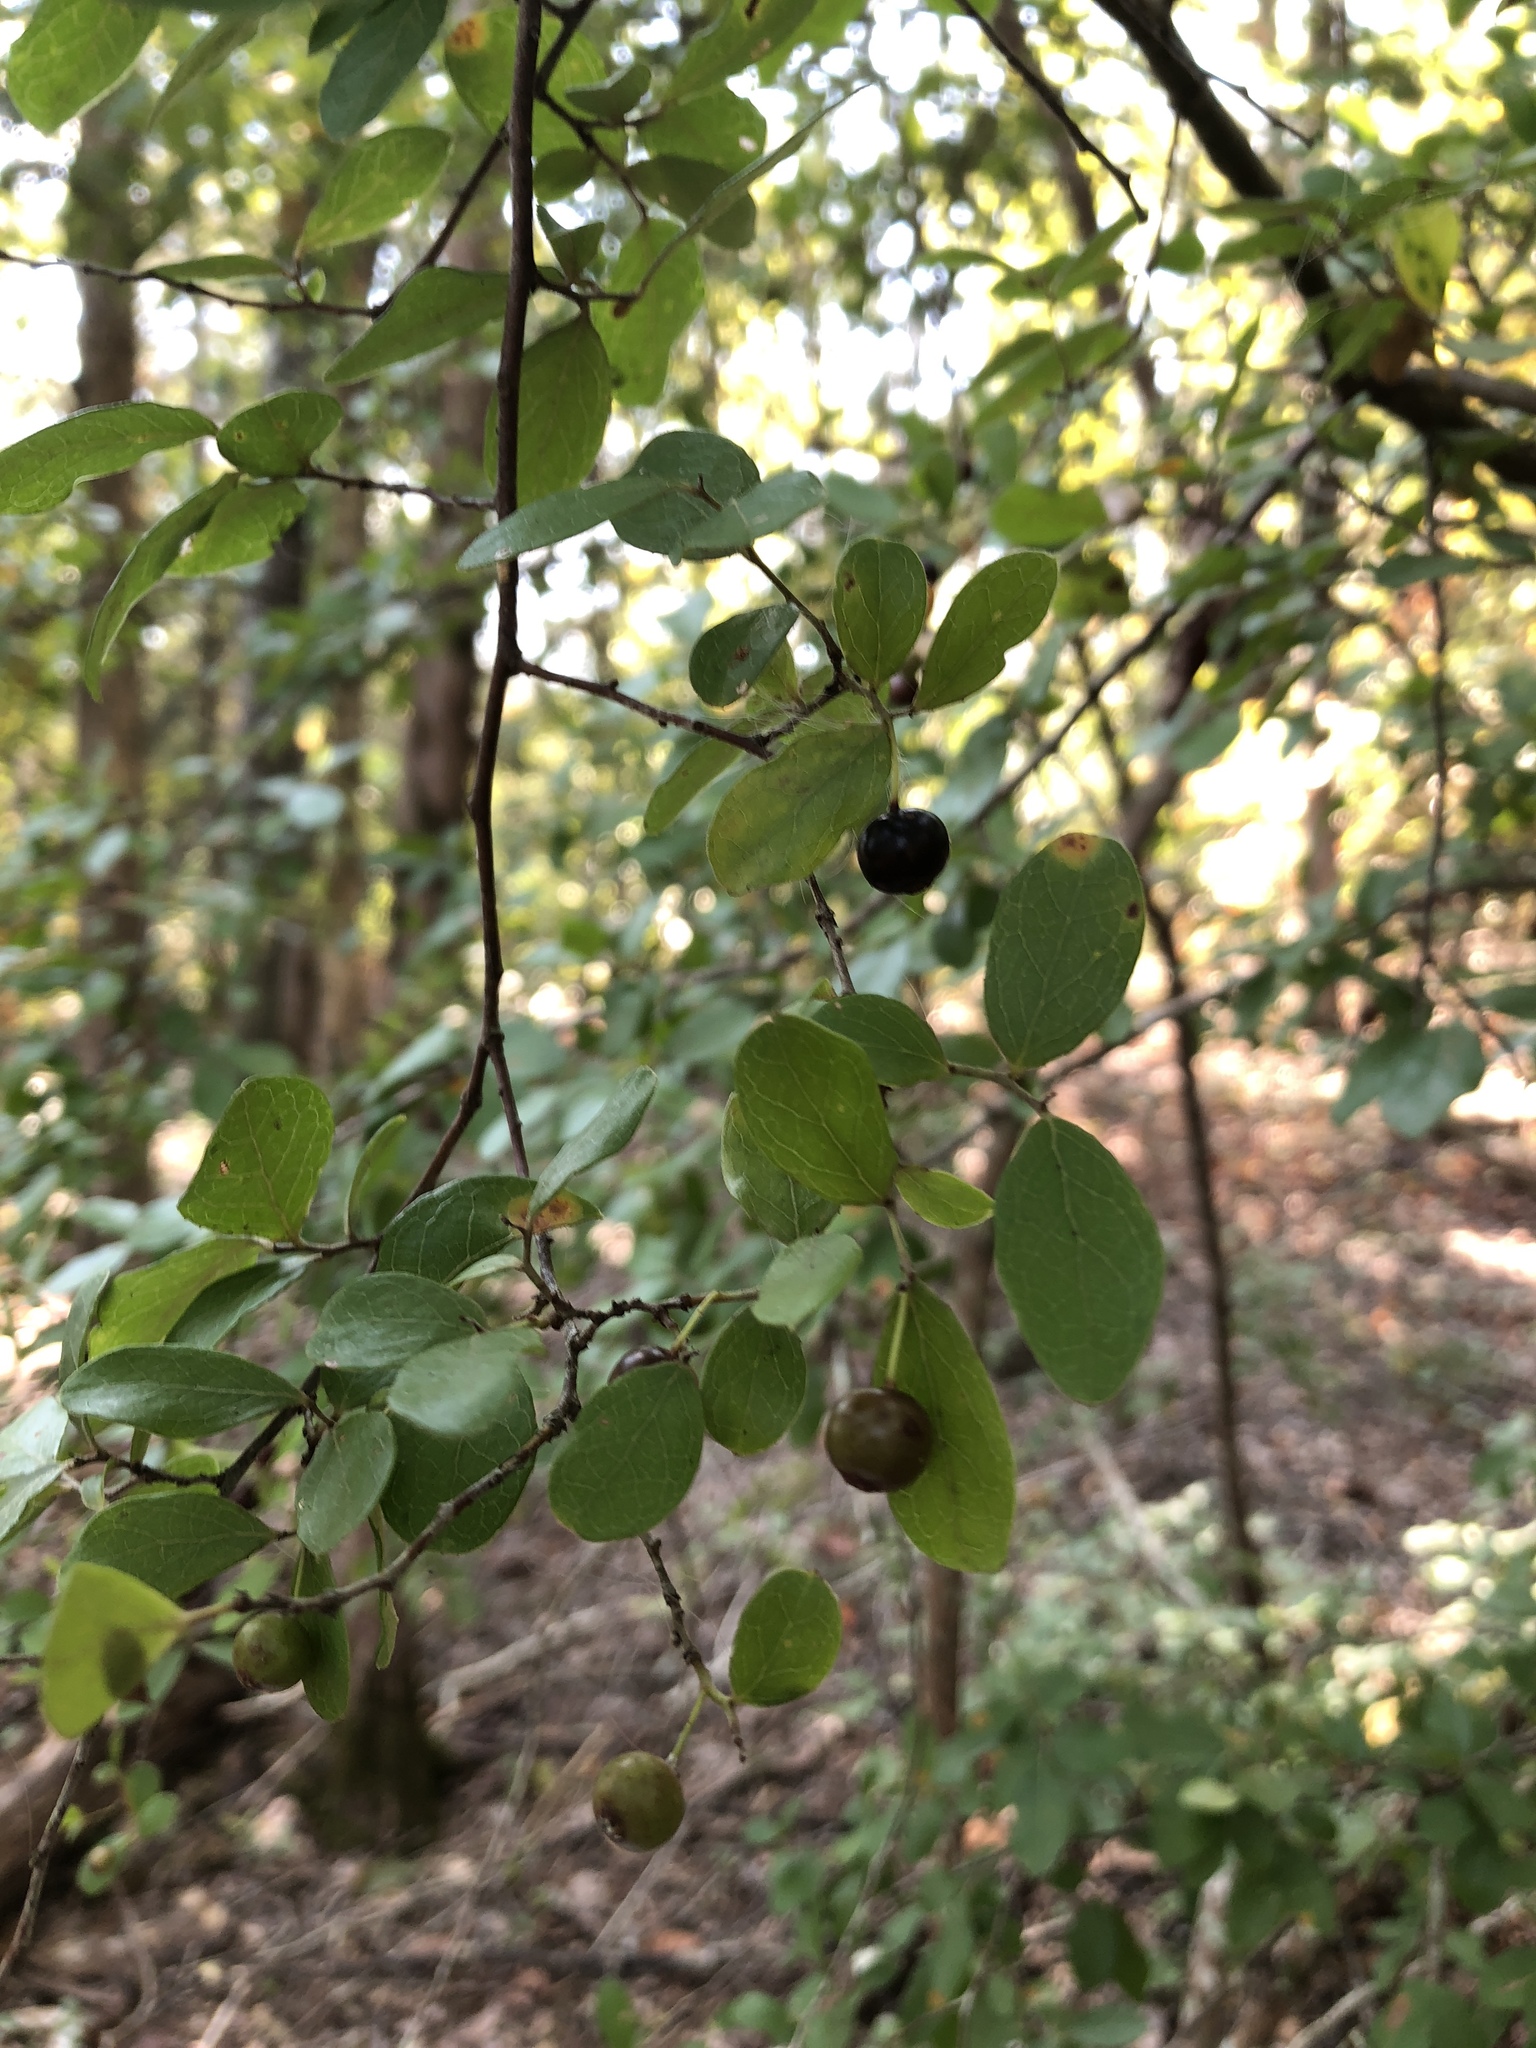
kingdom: Plantae
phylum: Tracheophyta
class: Magnoliopsida
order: Ericales
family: Ericaceae
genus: Vaccinium
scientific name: Vaccinium arboreum
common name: Farkleberry
